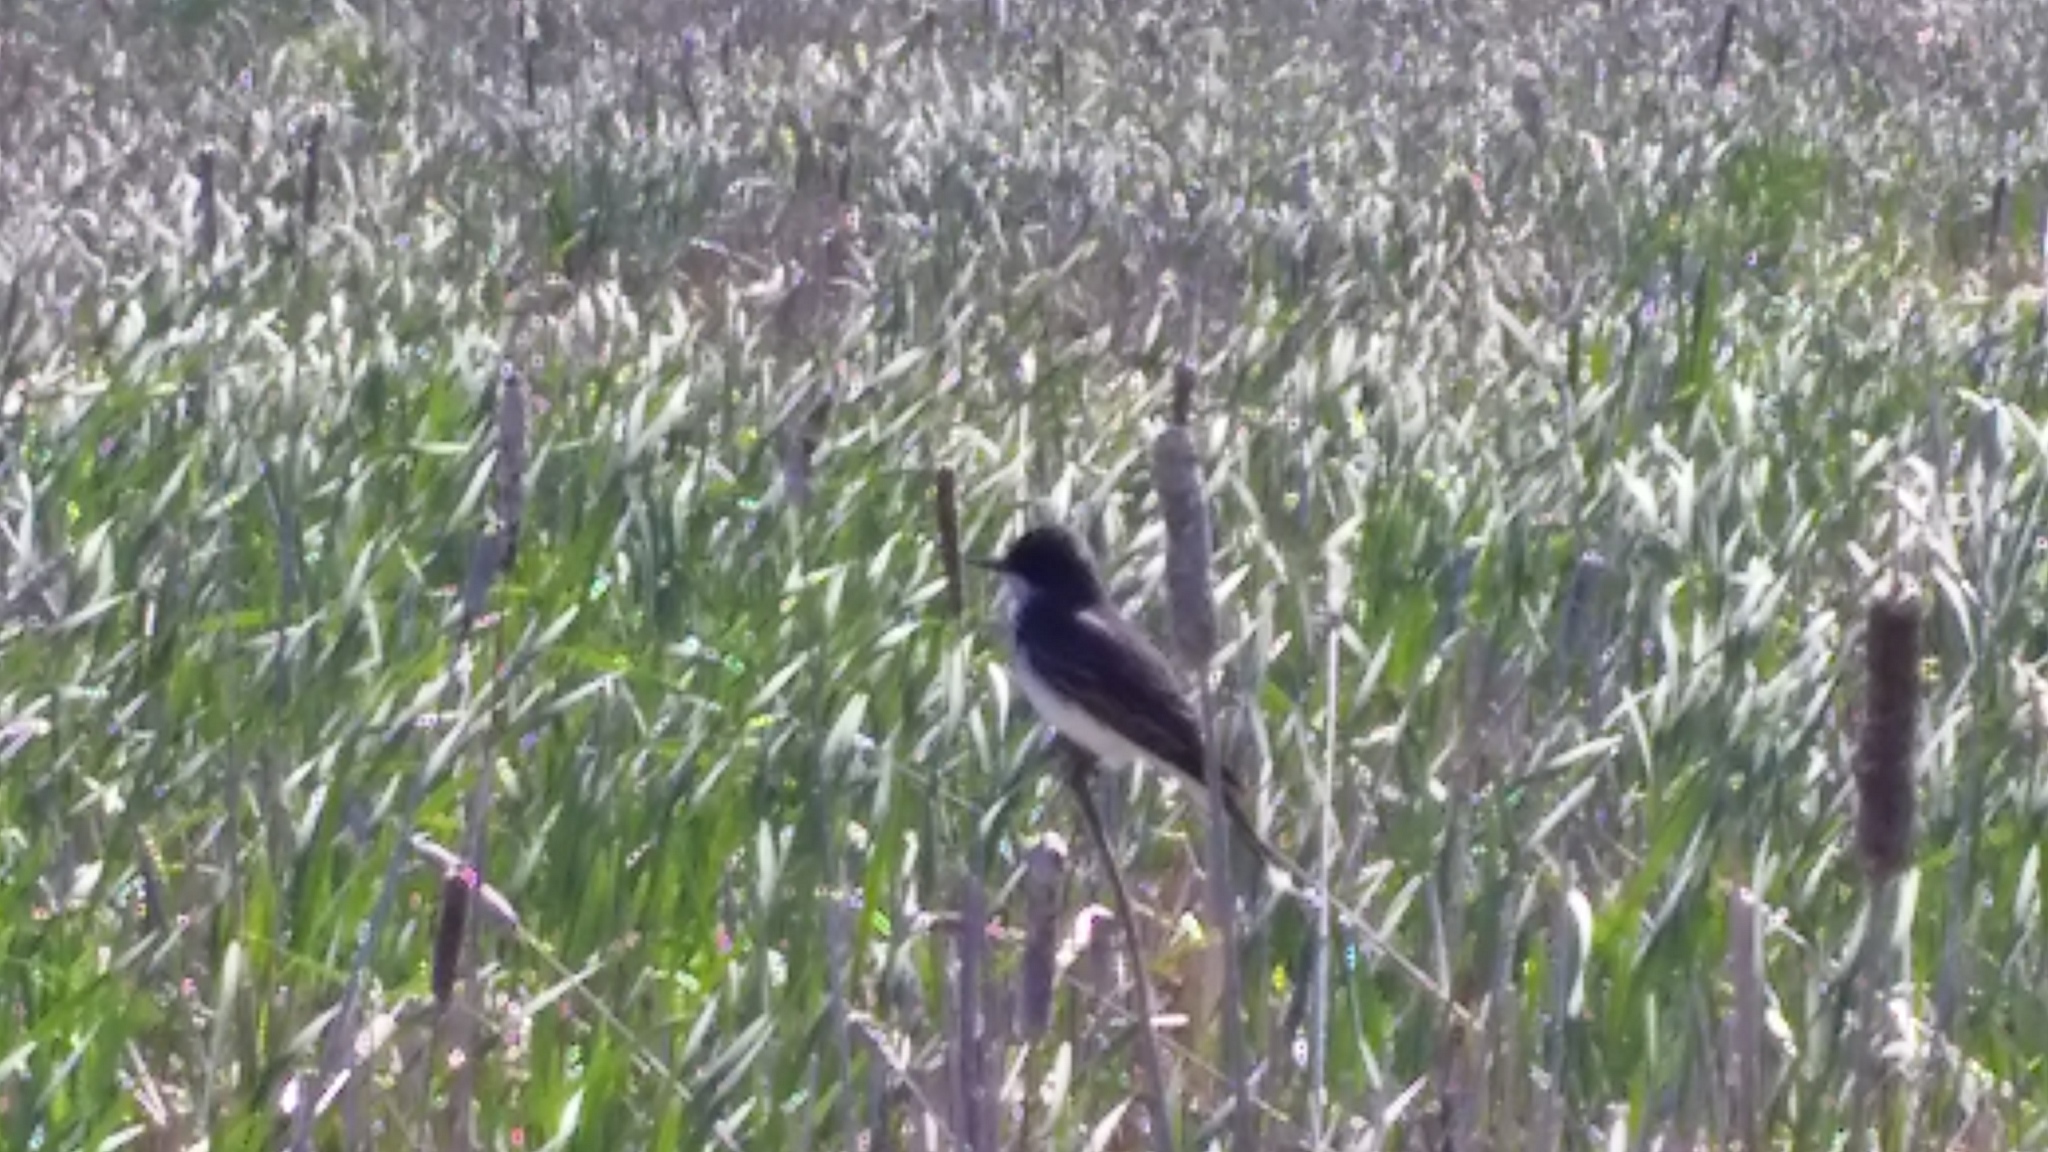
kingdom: Animalia
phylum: Chordata
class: Aves
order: Passeriformes
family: Tyrannidae
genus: Tyrannus
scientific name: Tyrannus tyrannus
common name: Eastern kingbird
